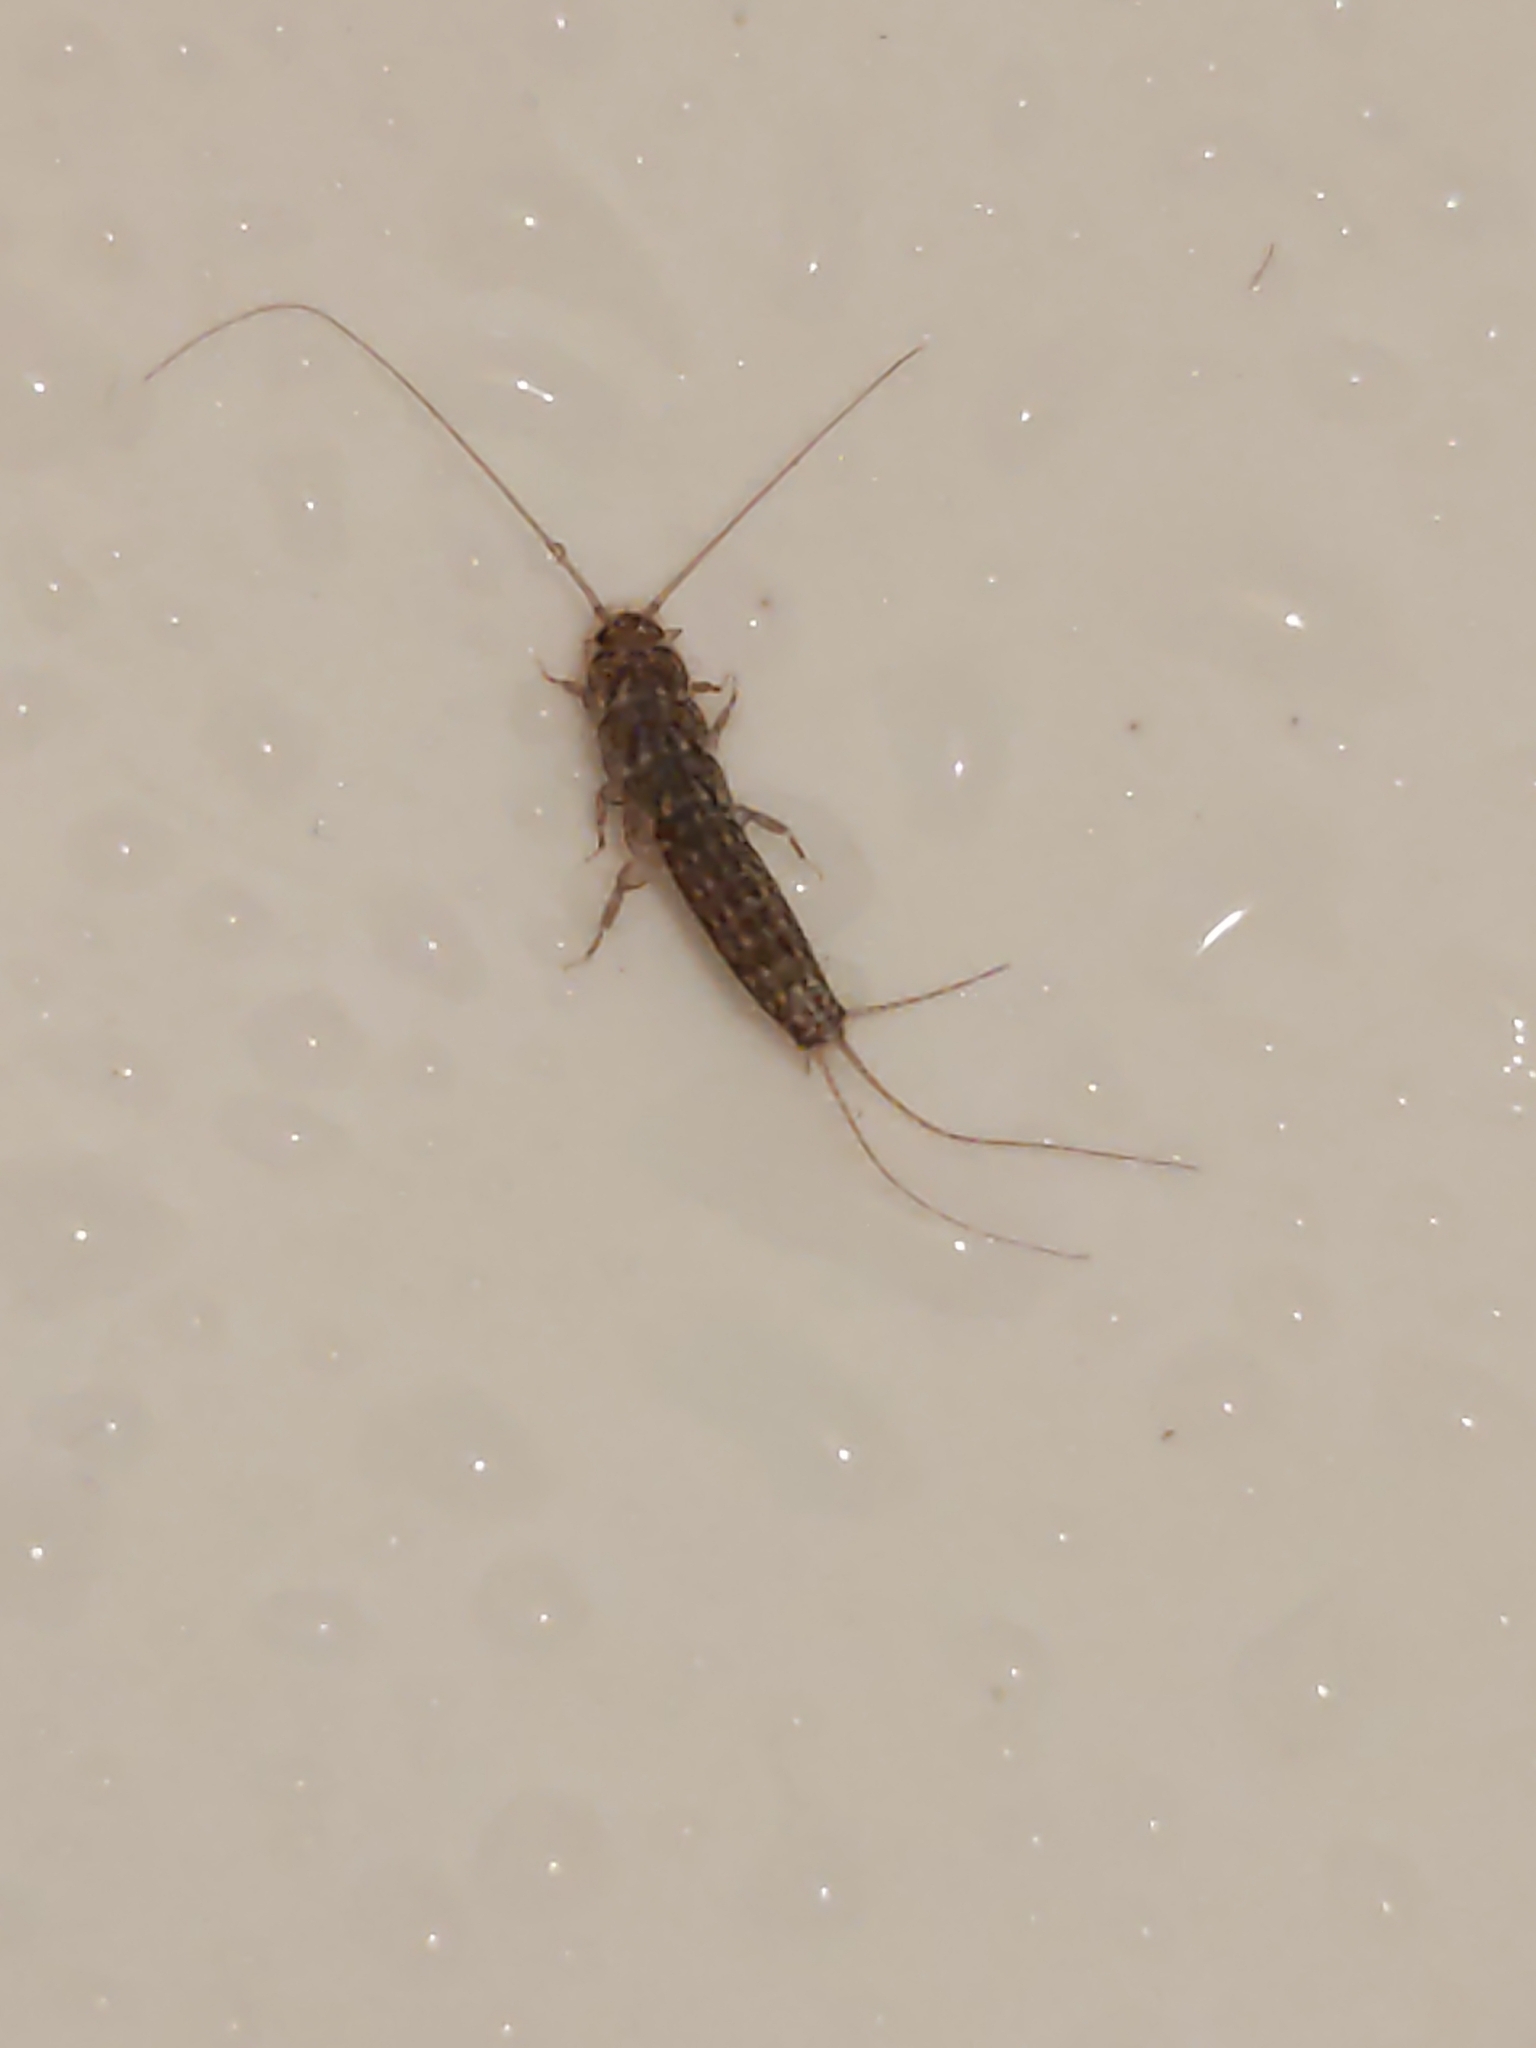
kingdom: Animalia
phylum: Arthropoda
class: Insecta
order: Zygentoma
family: Lepismatidae
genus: Ctenolepisma
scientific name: Ctenolepisma lineata
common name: Four-lined silverfish
